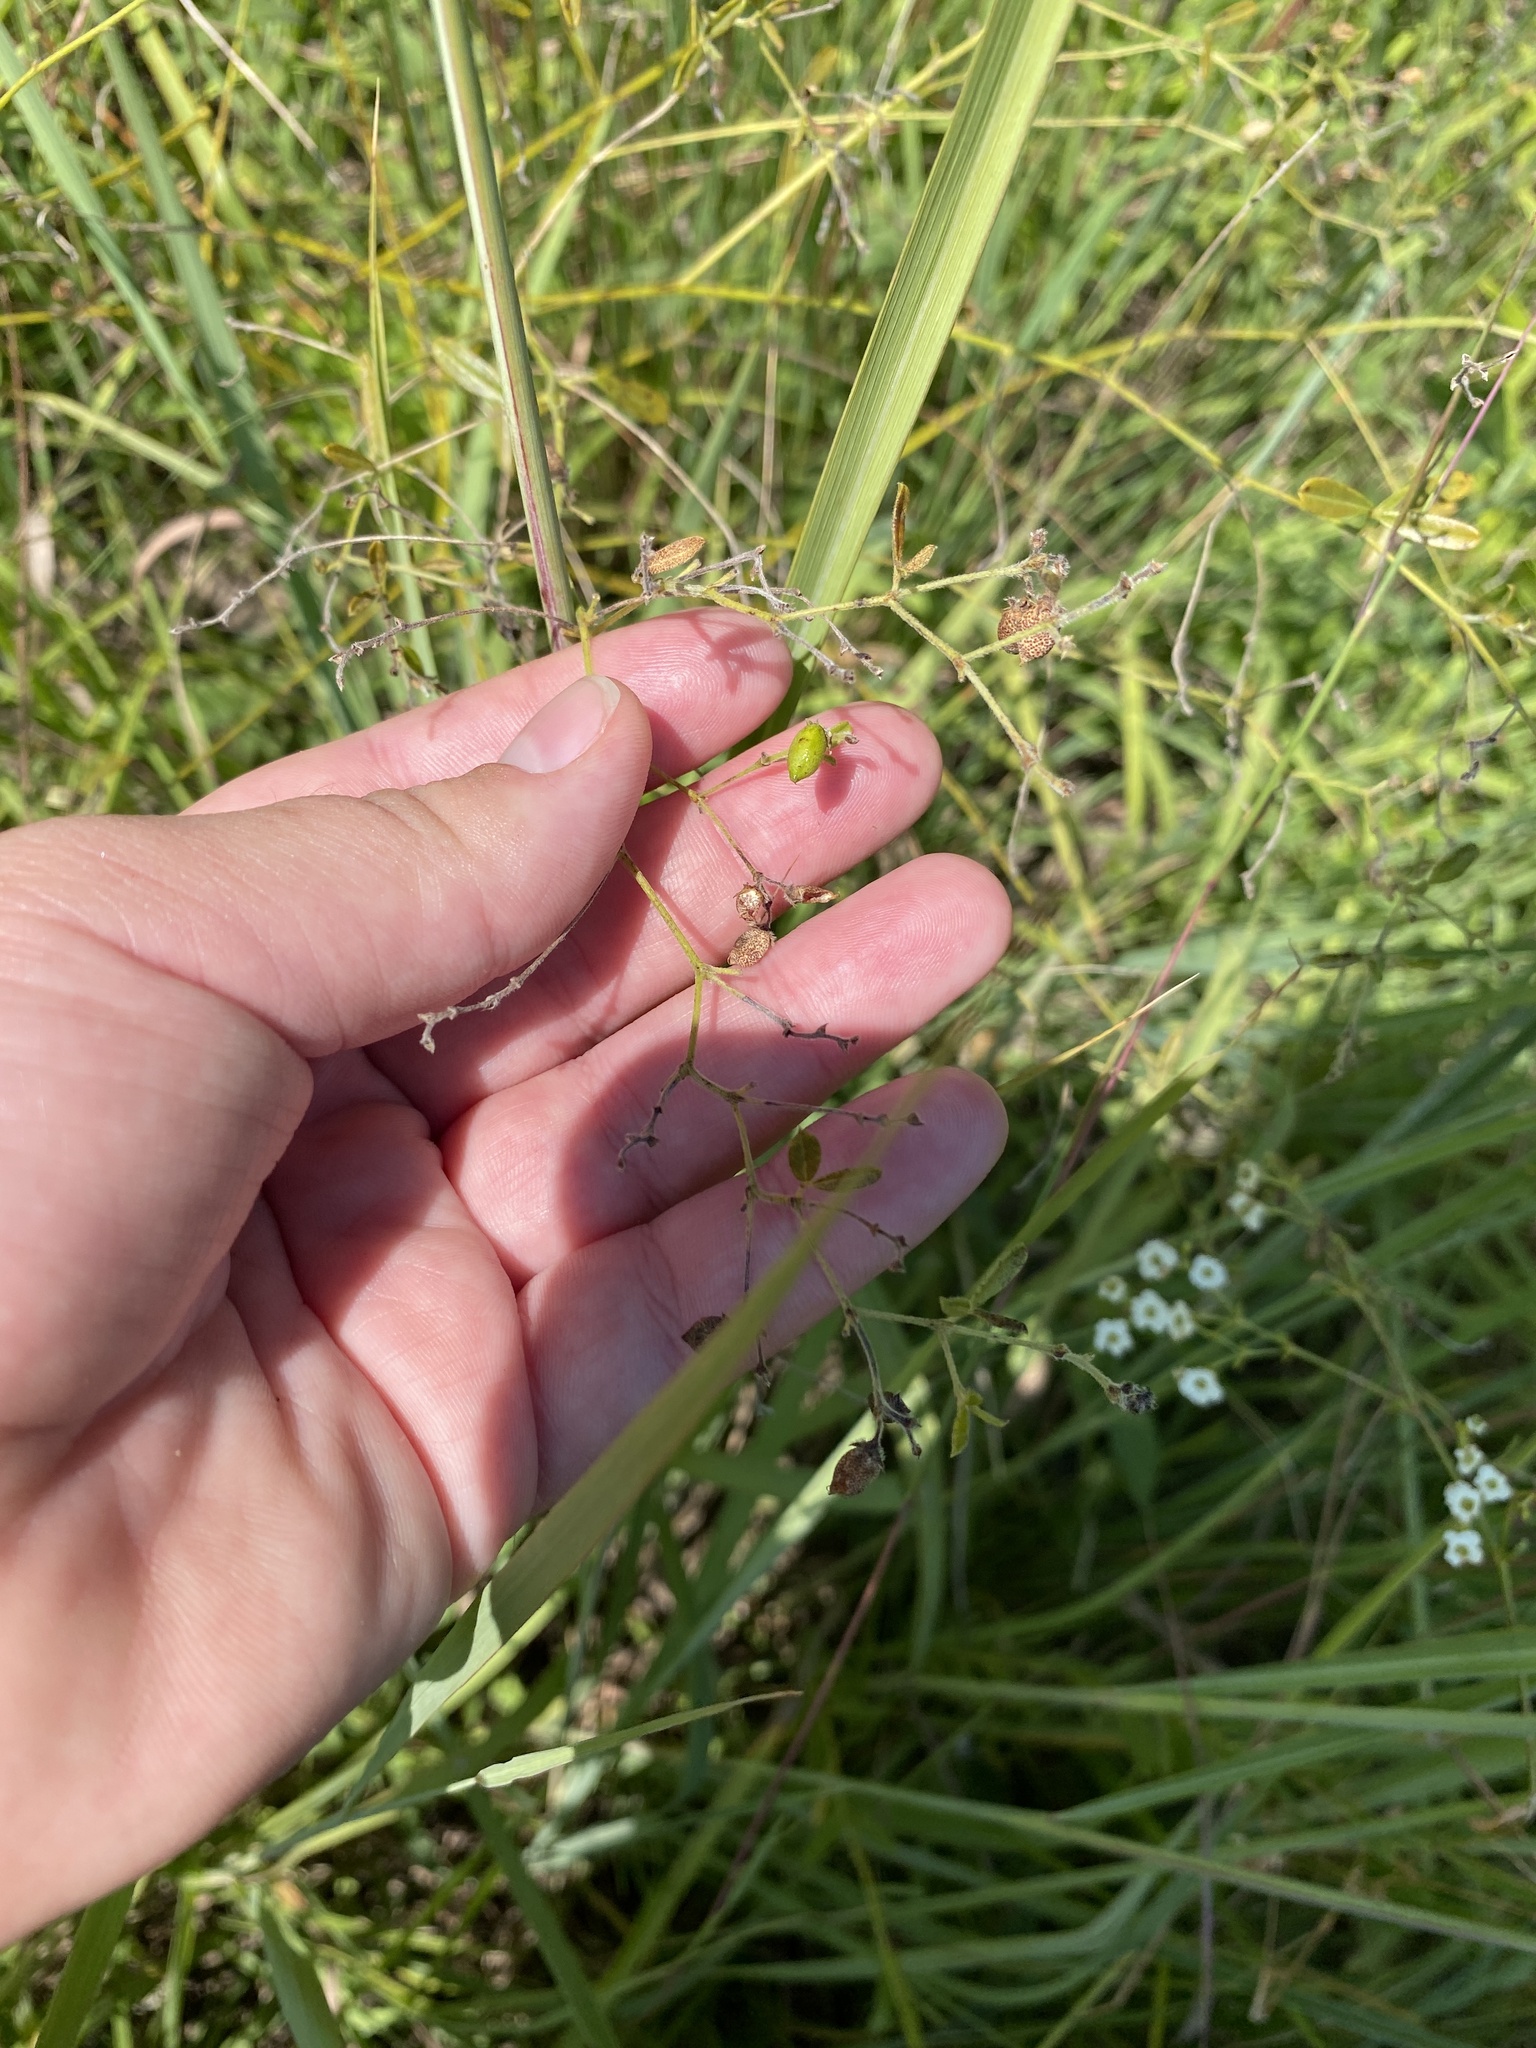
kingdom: Plantae
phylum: Tracheophyta
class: Magnoliopsida
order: Fabales
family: Fabaceae
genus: Pediomelum
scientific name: Pediomelum tenuiflorum
